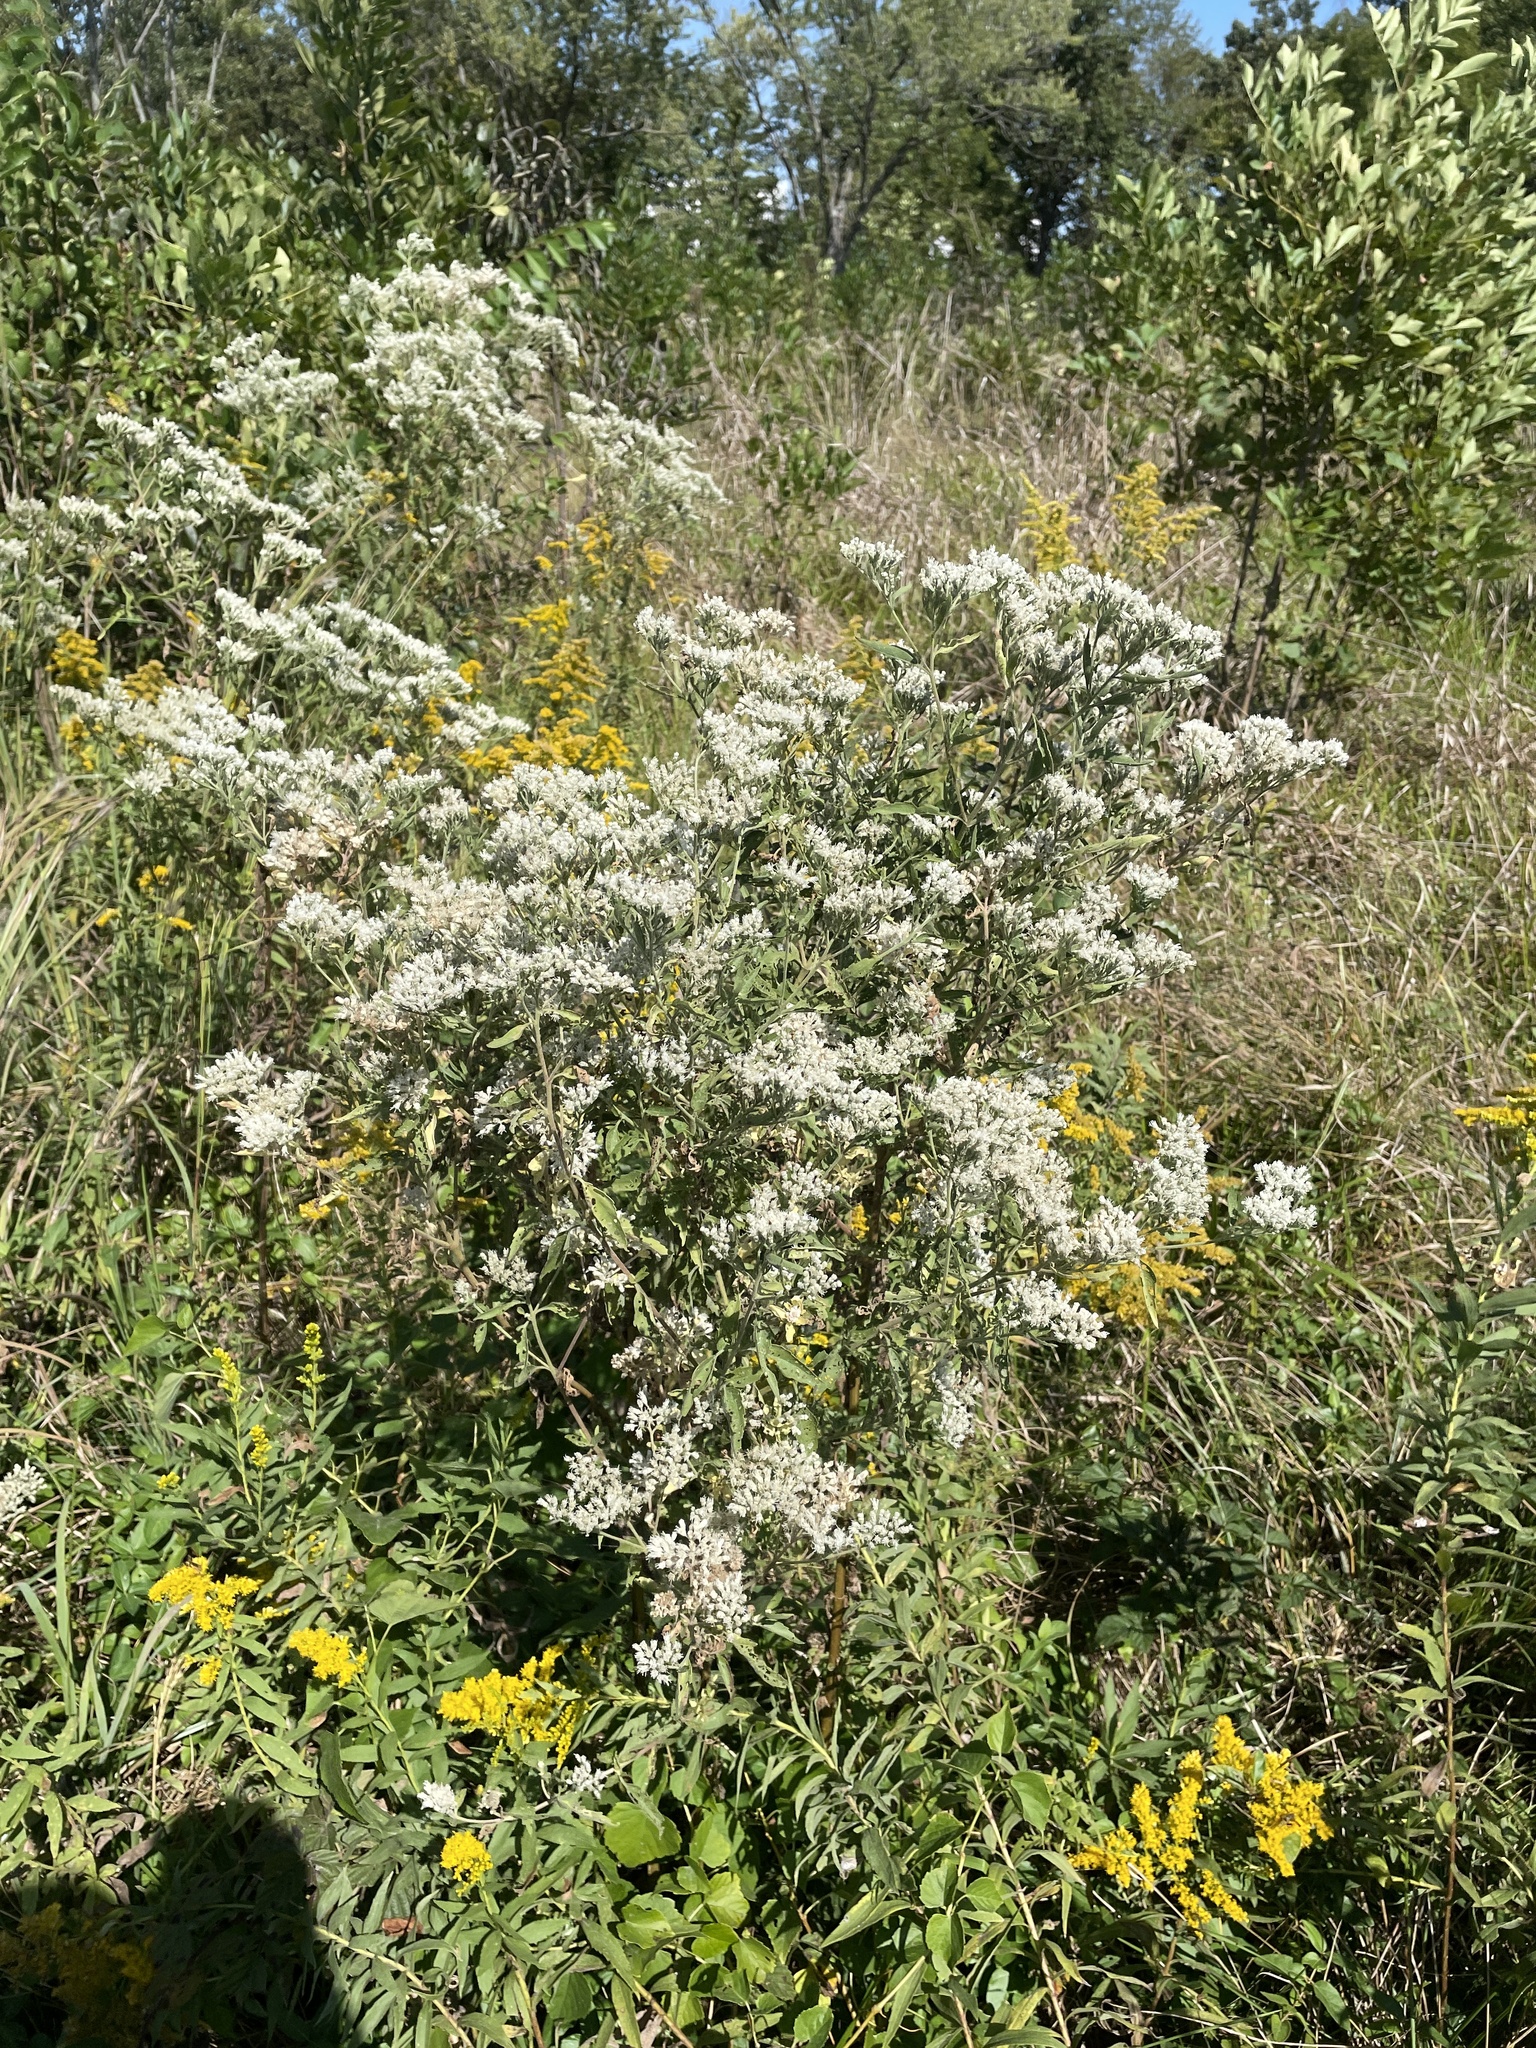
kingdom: Plantae
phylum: Tracheophyta
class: Magnoliopsida
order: Asterales
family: Asteraceae
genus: Eupatorium
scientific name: Eupatorium serotinum
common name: Late boneset
